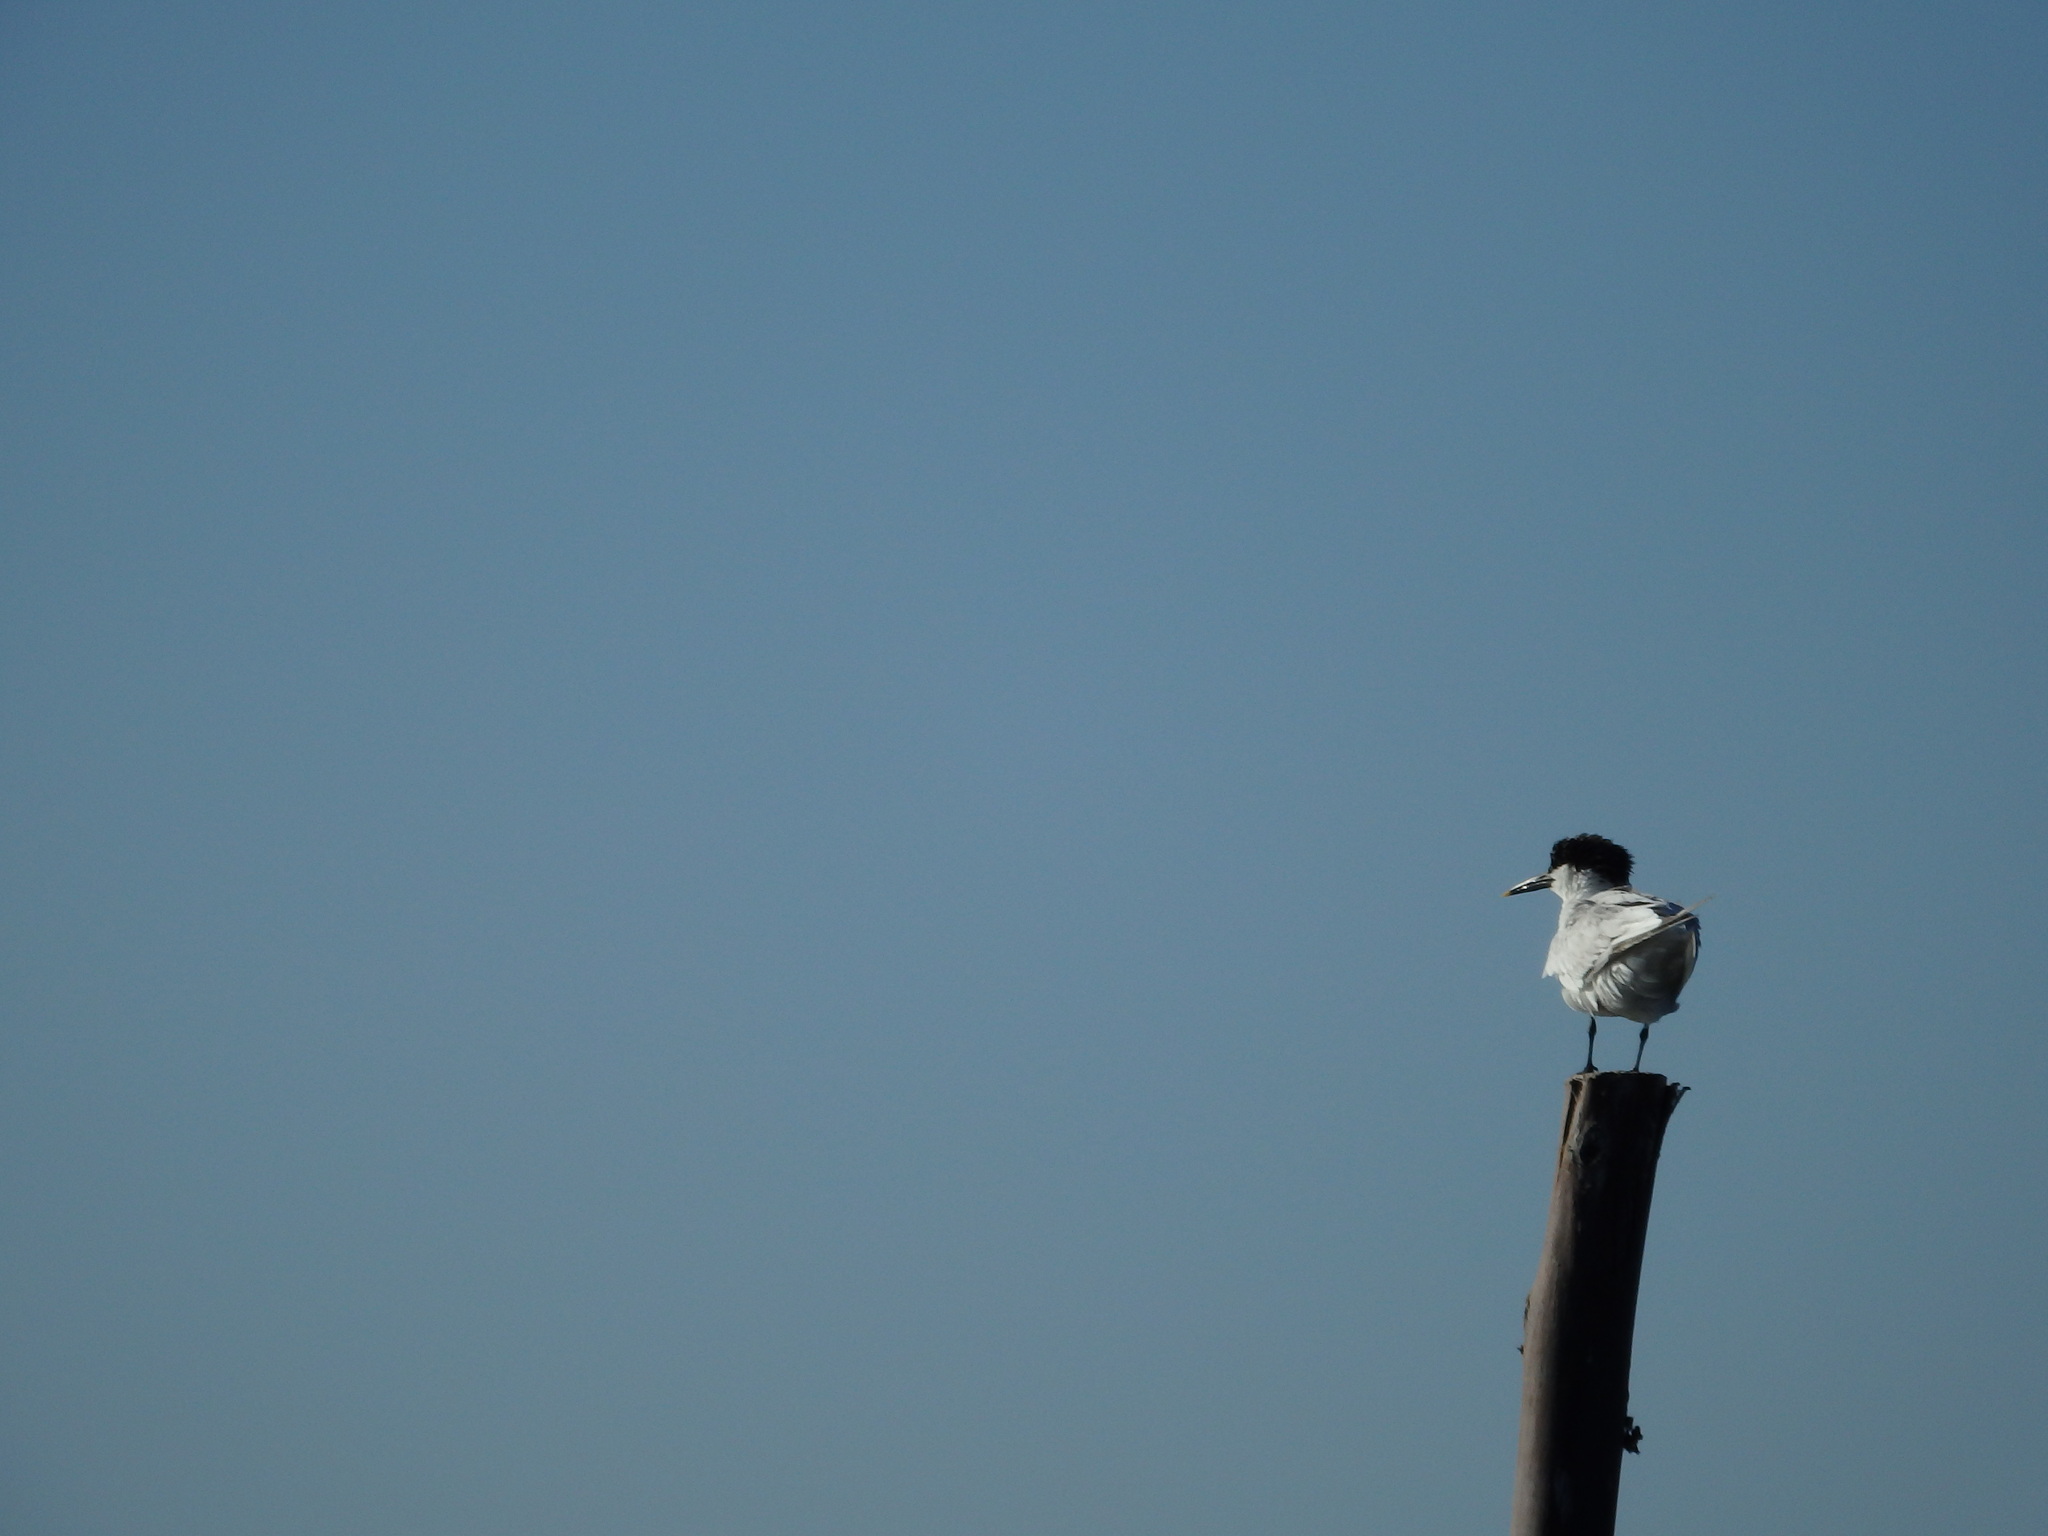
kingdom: Animalia
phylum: Chordata
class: Aves
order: Charadriiformes
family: Laridae
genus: Thalasseus
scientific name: Thalasseus sandvicensis
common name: Sandwich tern
